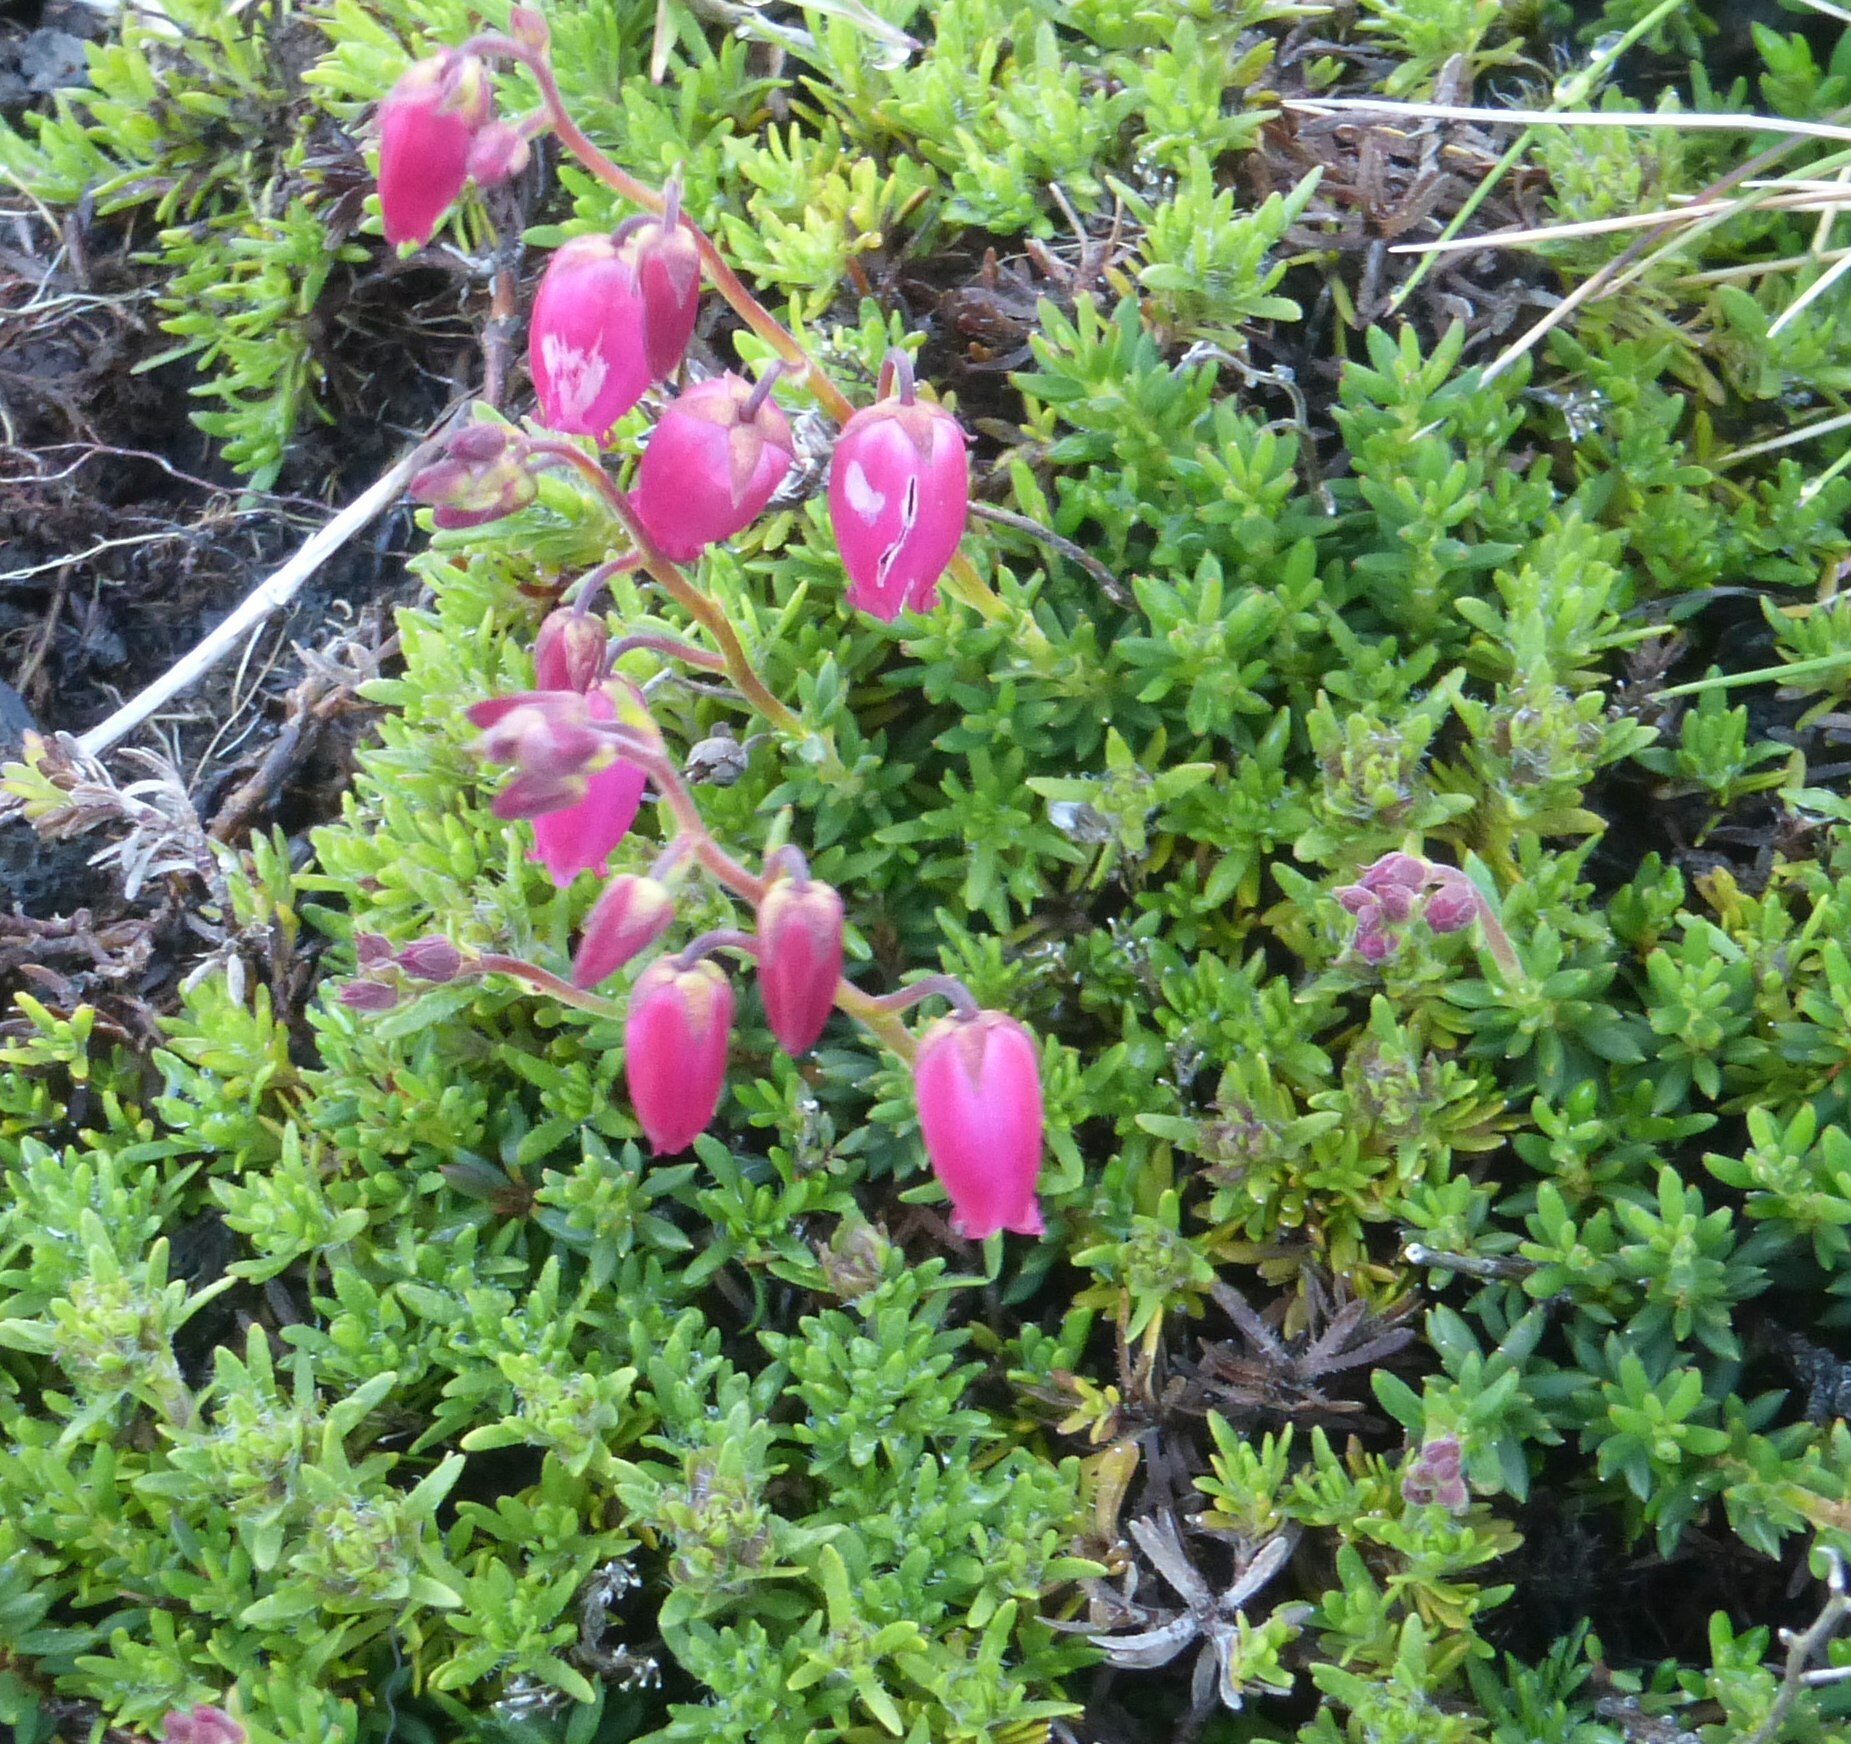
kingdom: Plantae
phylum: Tracheophyta
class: Magnoliopsida
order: Ericales
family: Ericaceae
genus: Daboecia
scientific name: Daboecia cantabrica
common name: St. dabeoc's-heath
